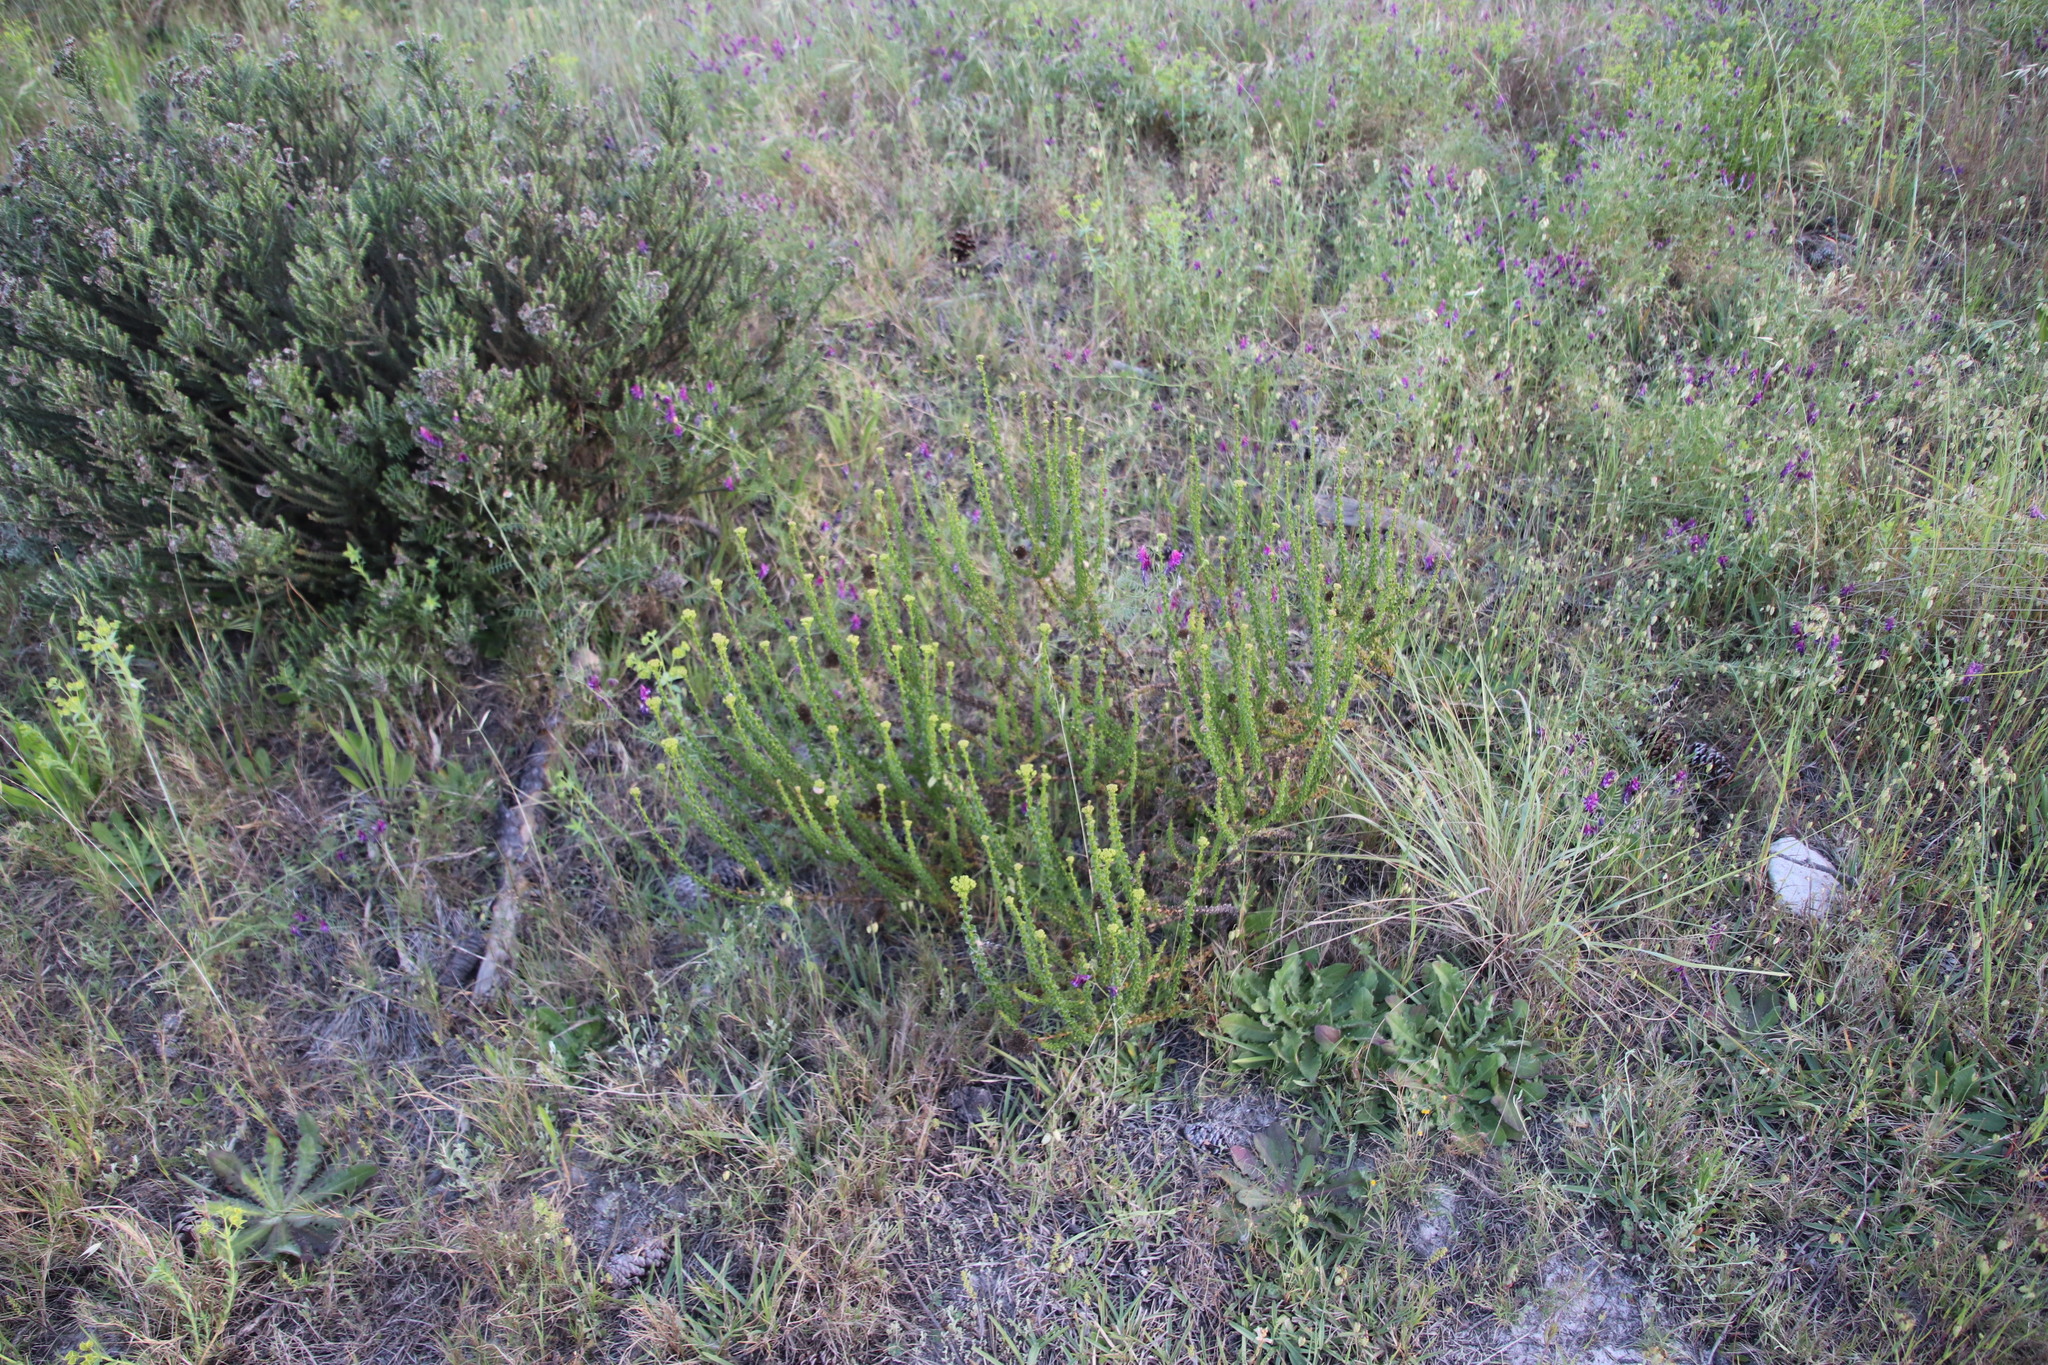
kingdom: Plantae
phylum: Tracheophyta
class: Magnoliopsida
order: Asterales
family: Asteraceae
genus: Athanasia
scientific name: Athanasia dentata
